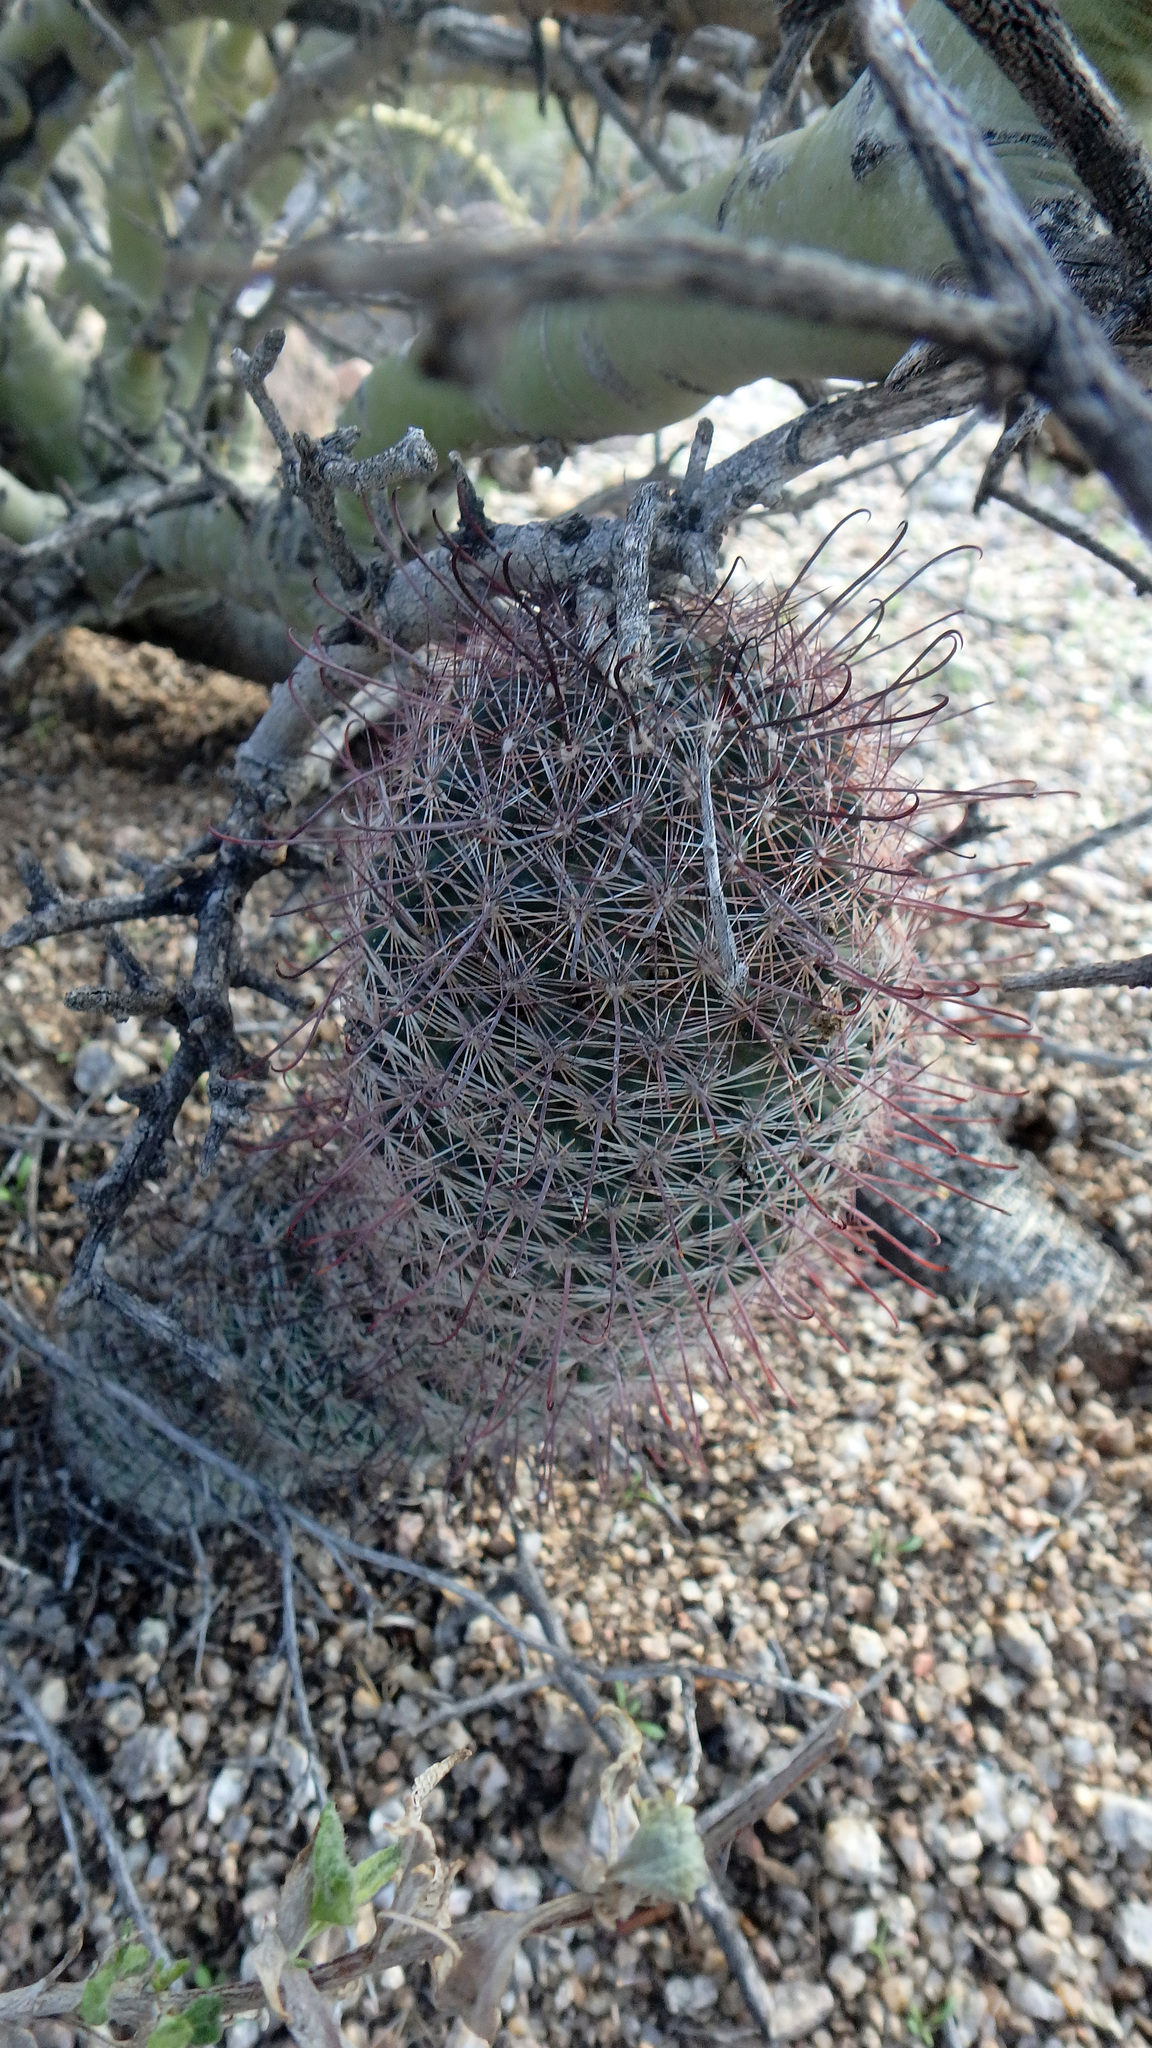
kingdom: Plantae
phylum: Tracheophyta
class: Magnoliopsida
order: Caryophyllales
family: Cactaceae
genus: Cochemiea
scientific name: Cochemiea grahamii
